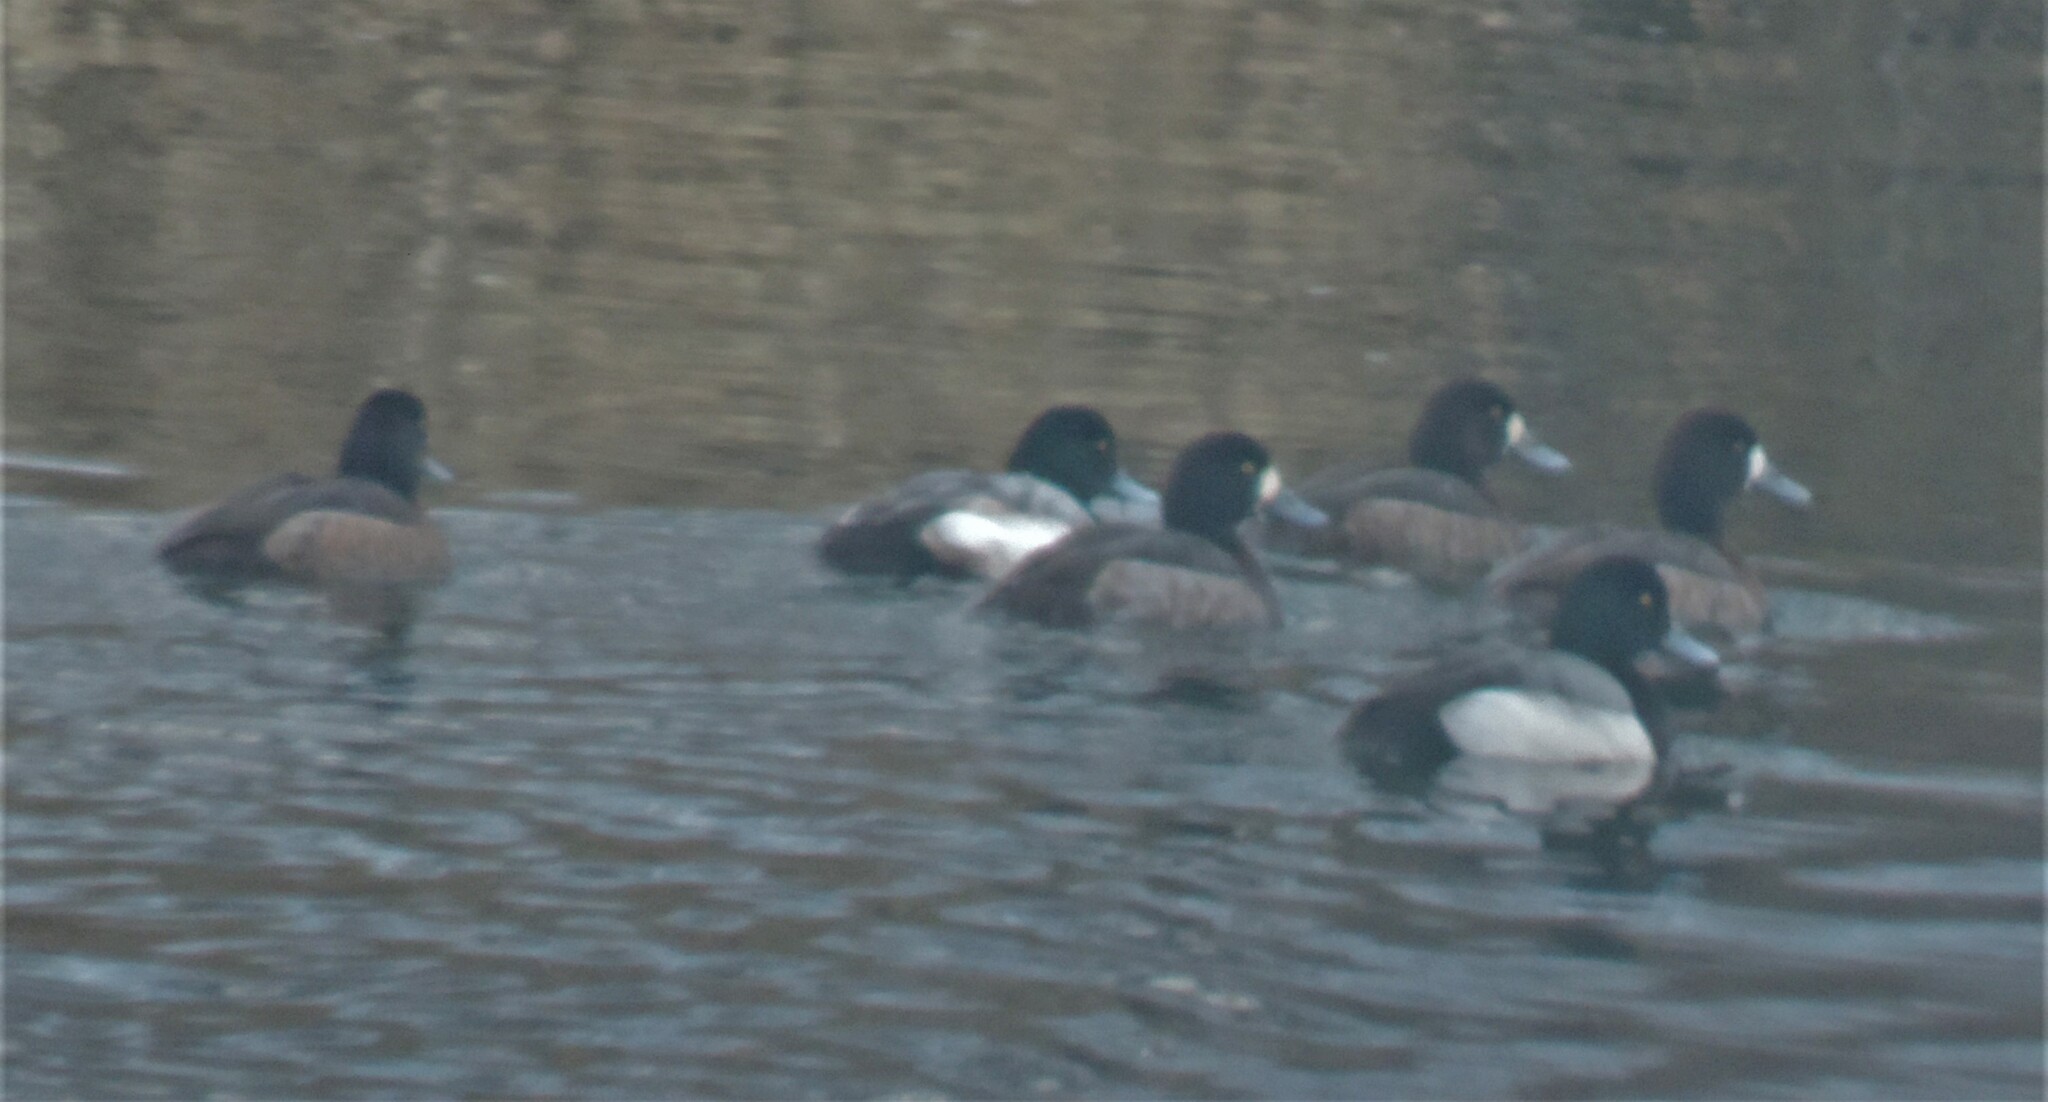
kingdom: Animalia
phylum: Chordata
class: Aves
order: Anseriformes
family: Anatidae
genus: Aythya
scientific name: Aythya marila
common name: Greater scaup
